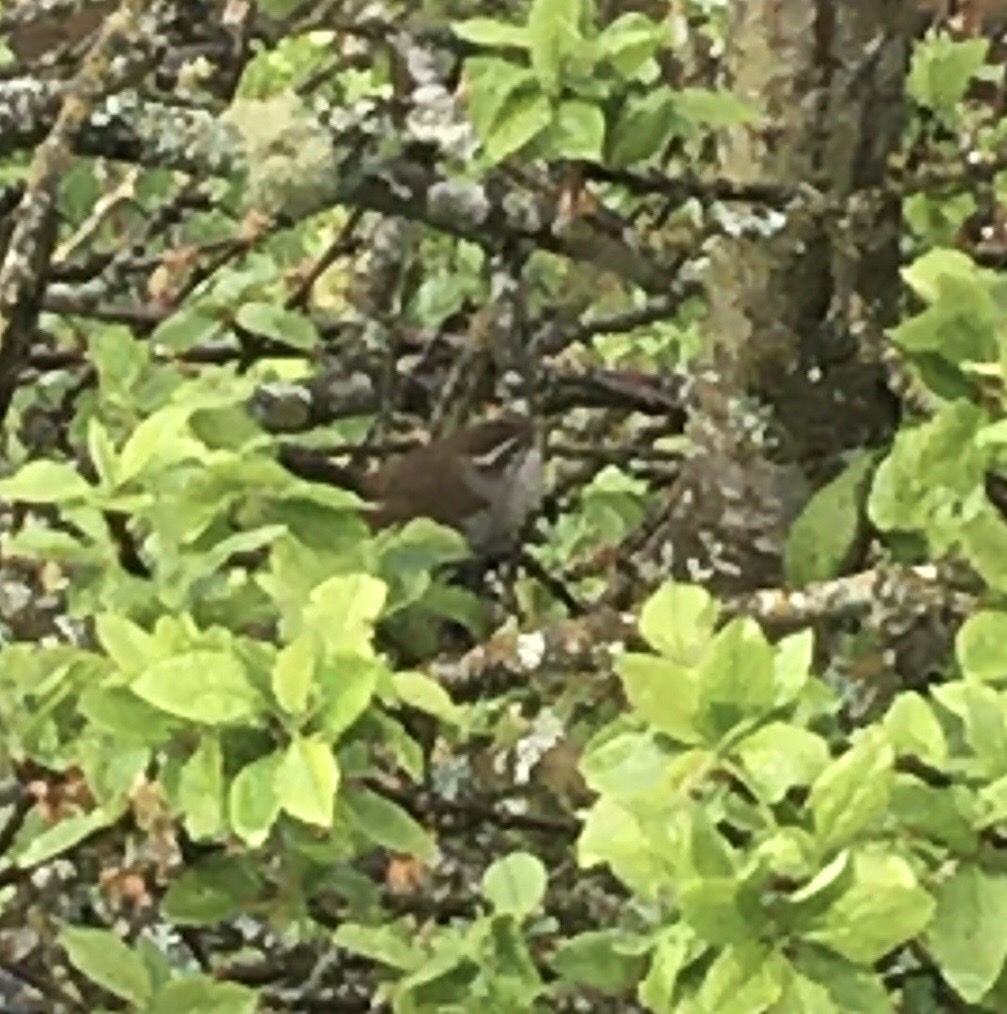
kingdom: Animalia
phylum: Chordata
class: Aves
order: Passeriformes
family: Troglodytidae
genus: Thryomanes
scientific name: Thryomanes bewickii
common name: Bewick's wren
